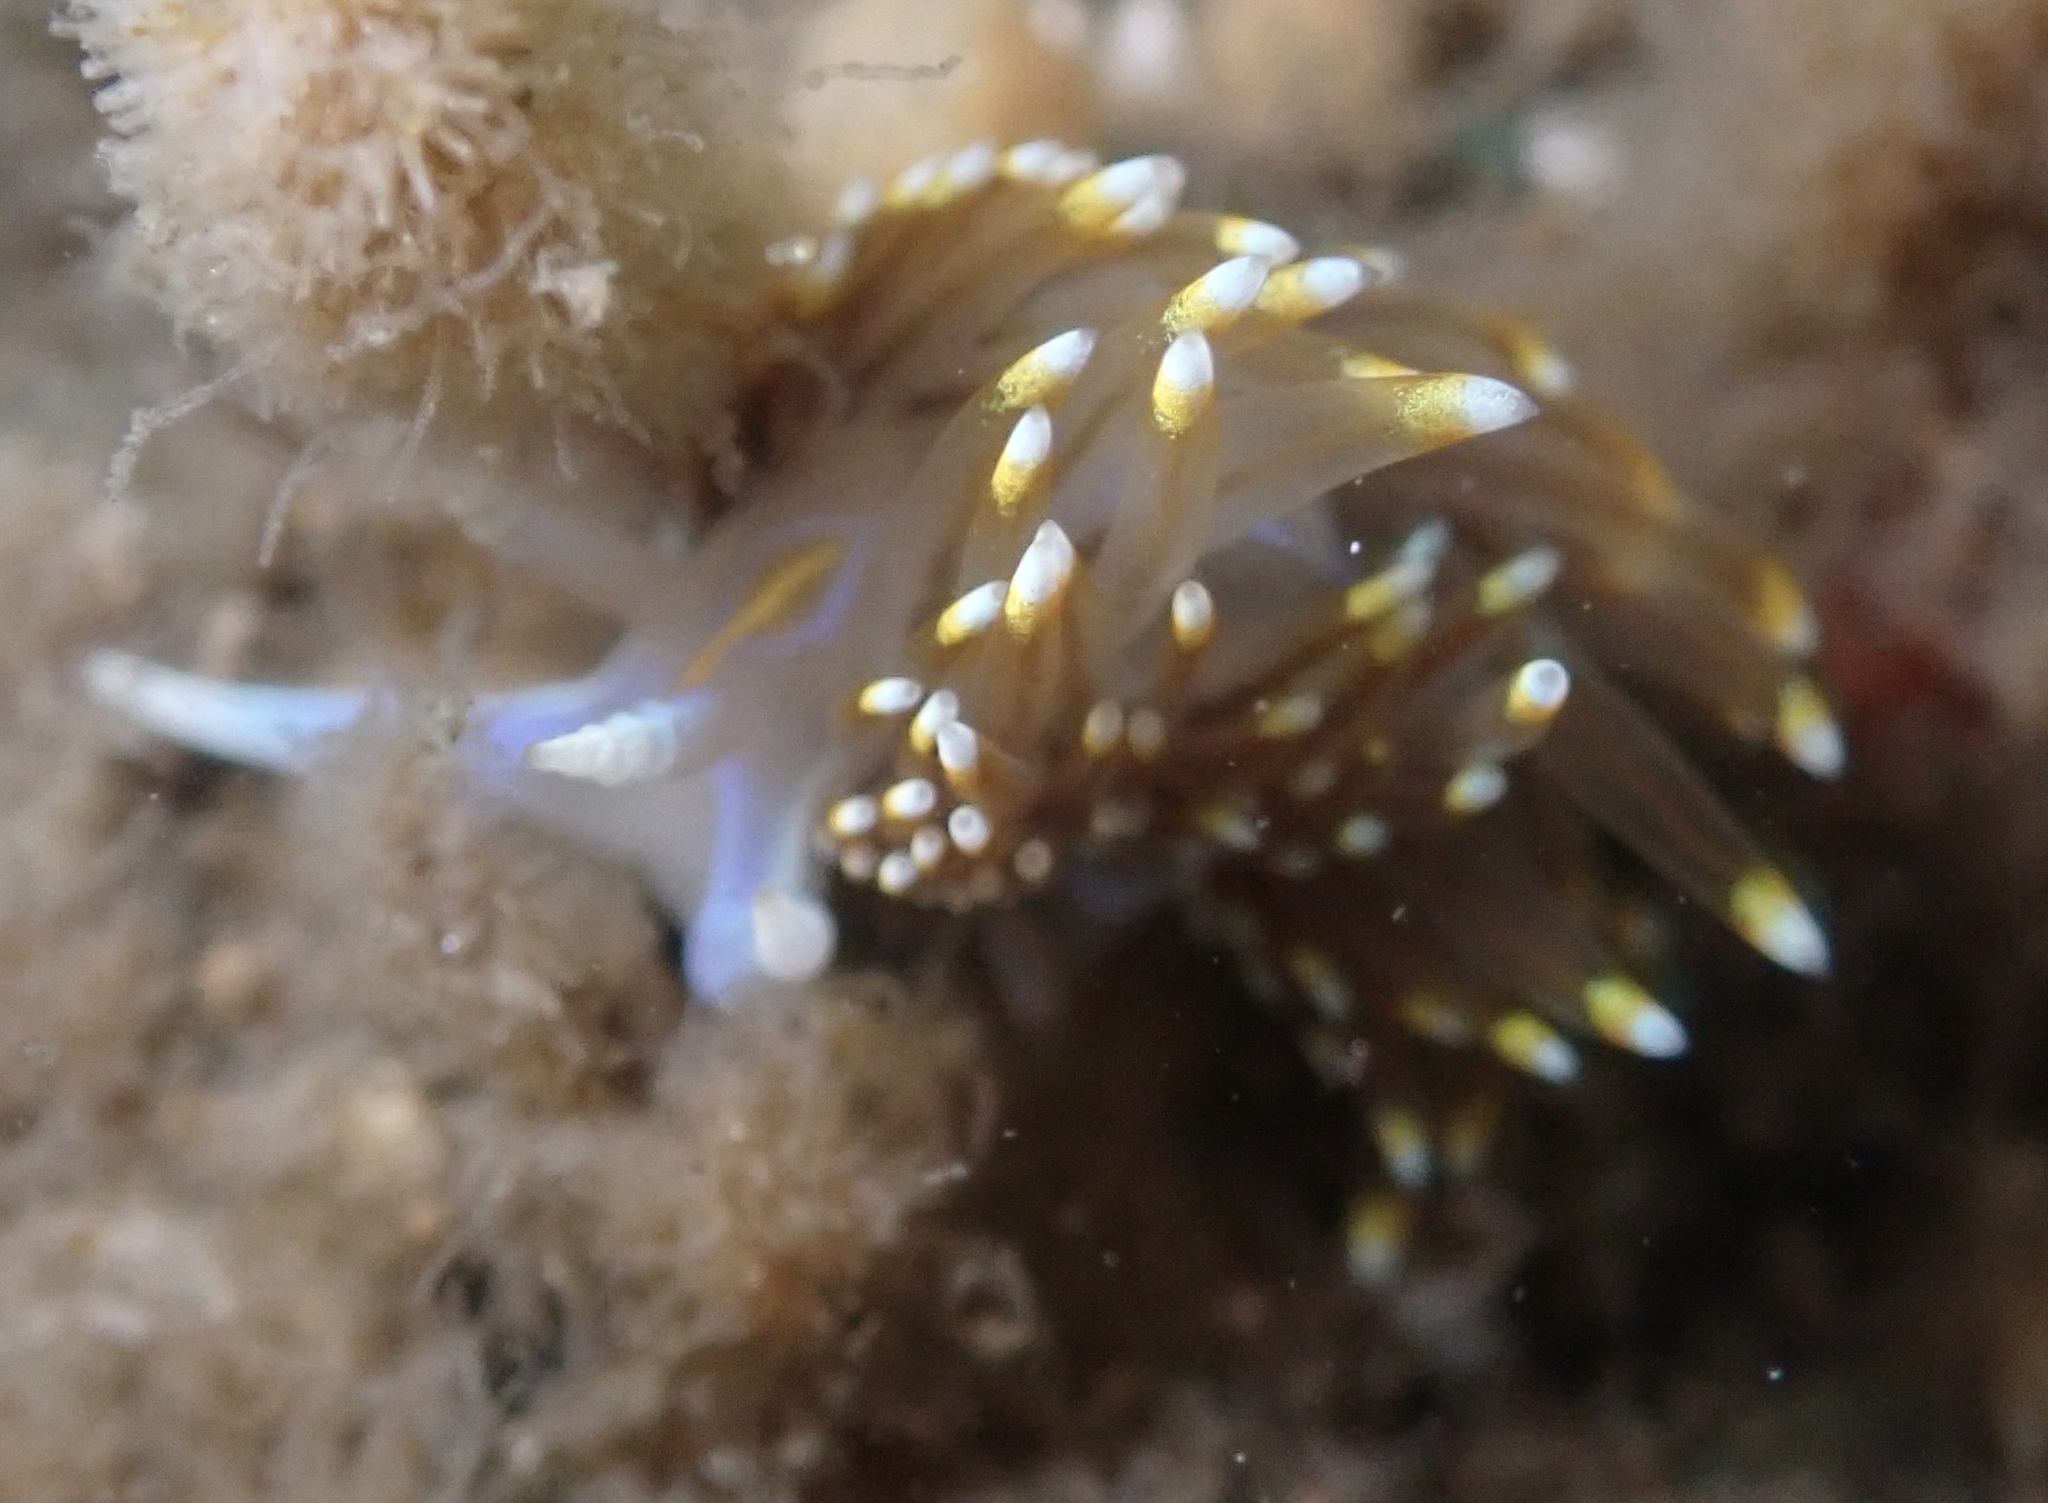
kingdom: Animalia
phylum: Mollusca
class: Gastropoda
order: Nudibranchia
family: Myrrhinidae
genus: Hermissenda
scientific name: Hermissenda opalescens
